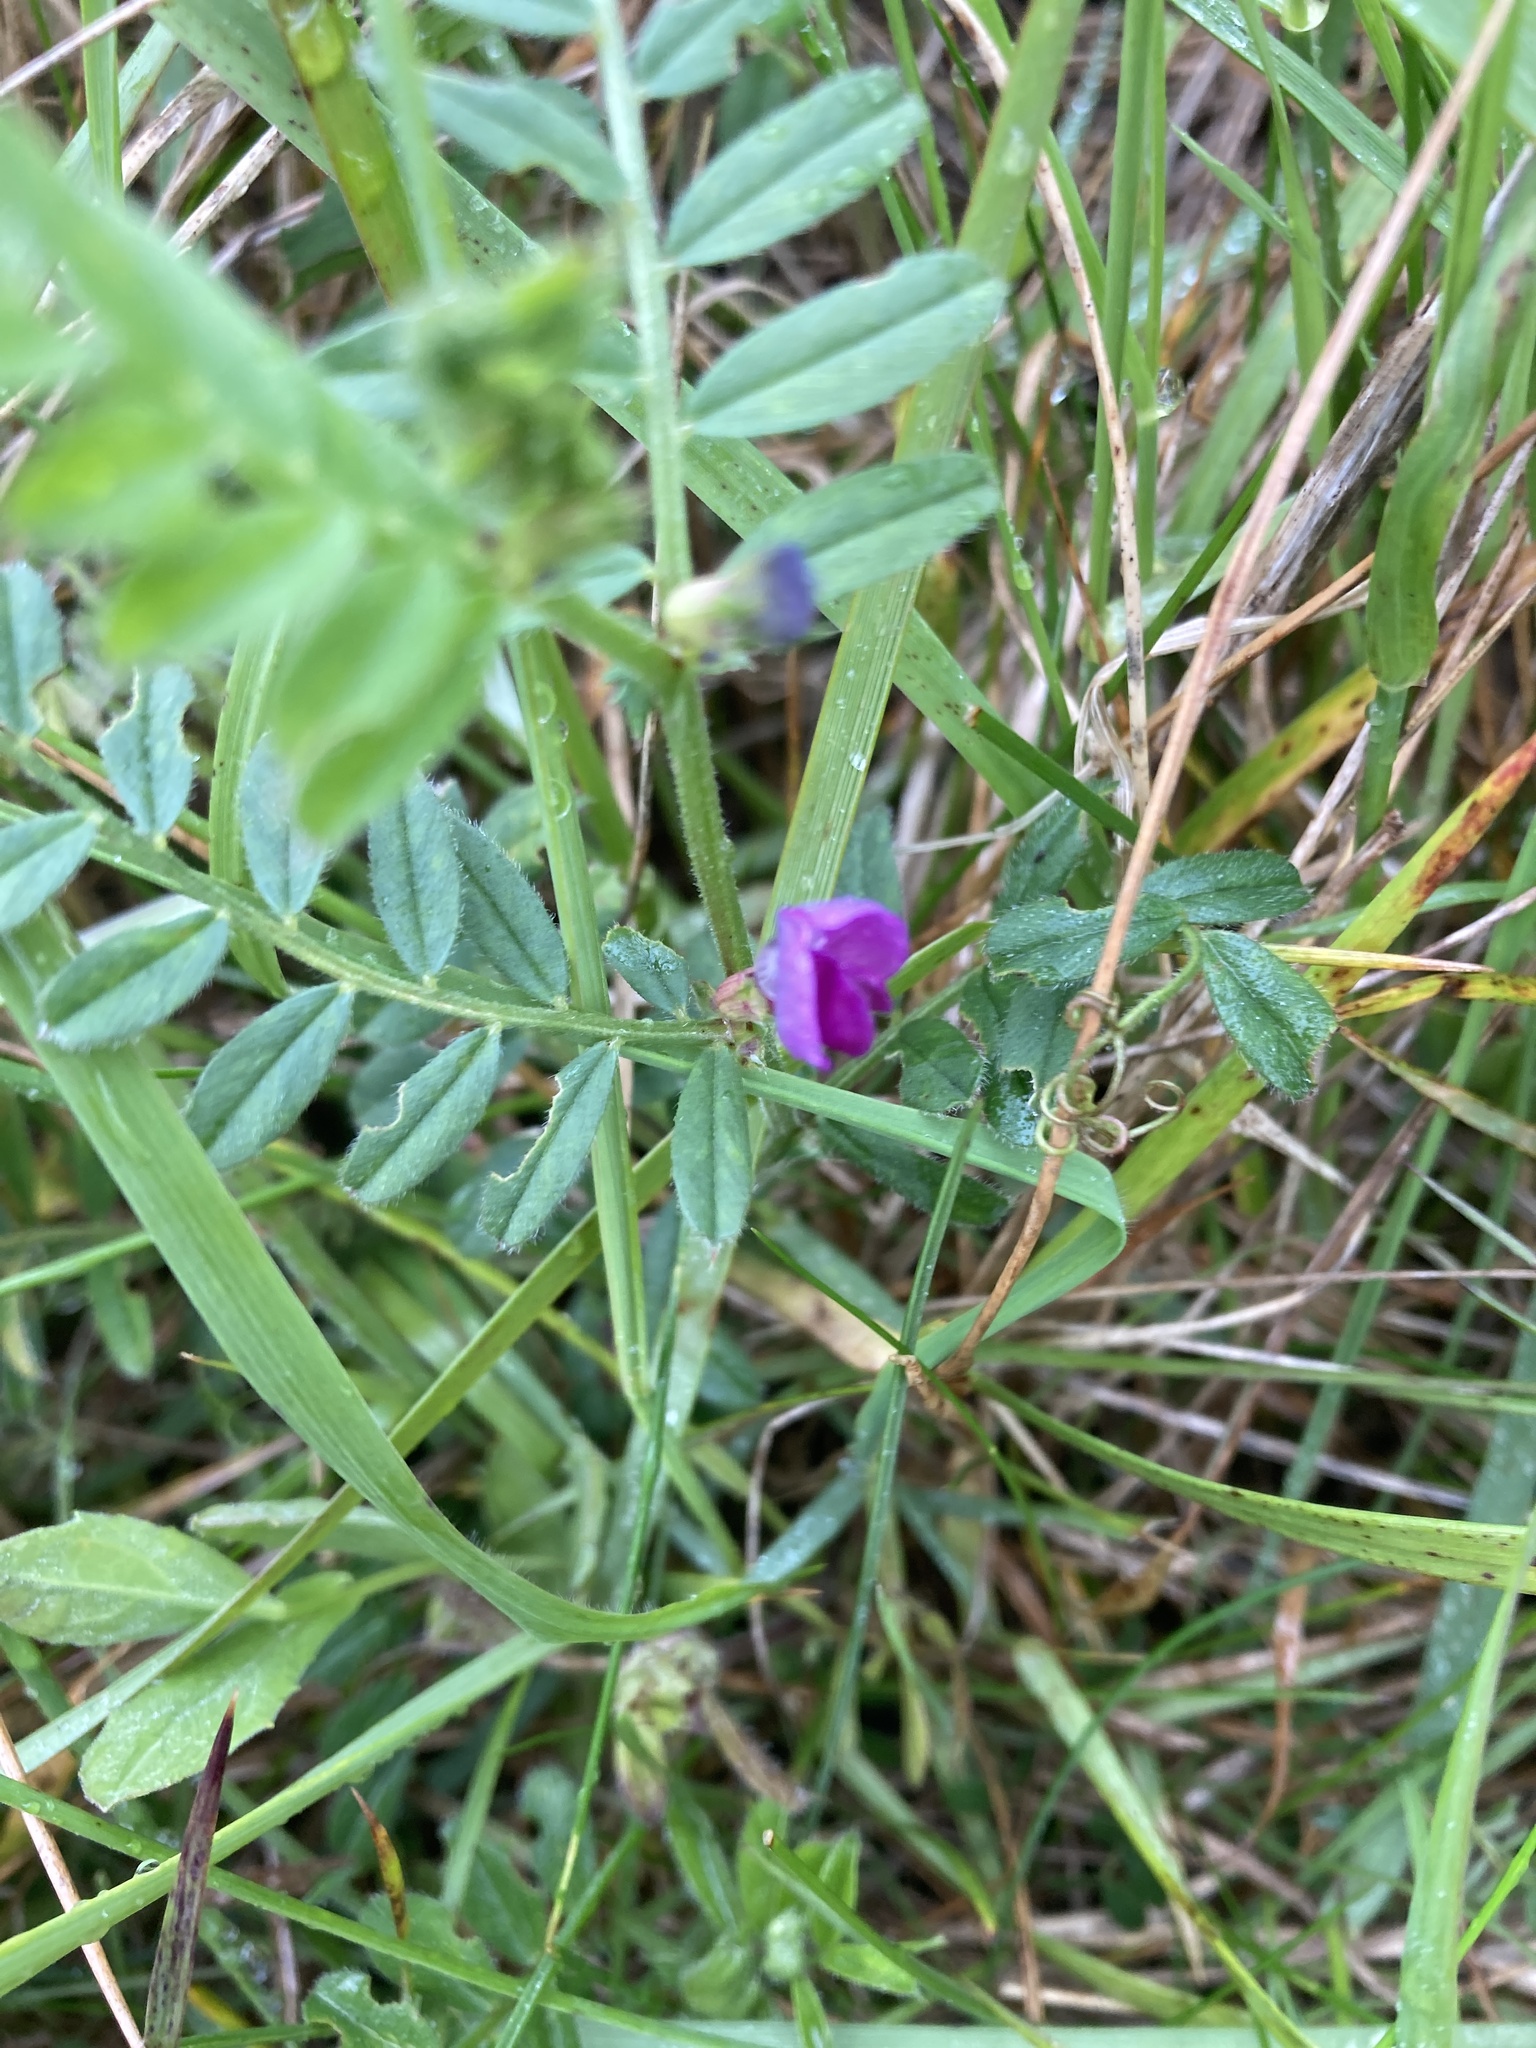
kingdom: Plantae
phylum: Tracheophyta
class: Magnoliopsida
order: Fabales
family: Fabaceae
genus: Vicia
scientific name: Vicia sativa
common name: Garden vetch
